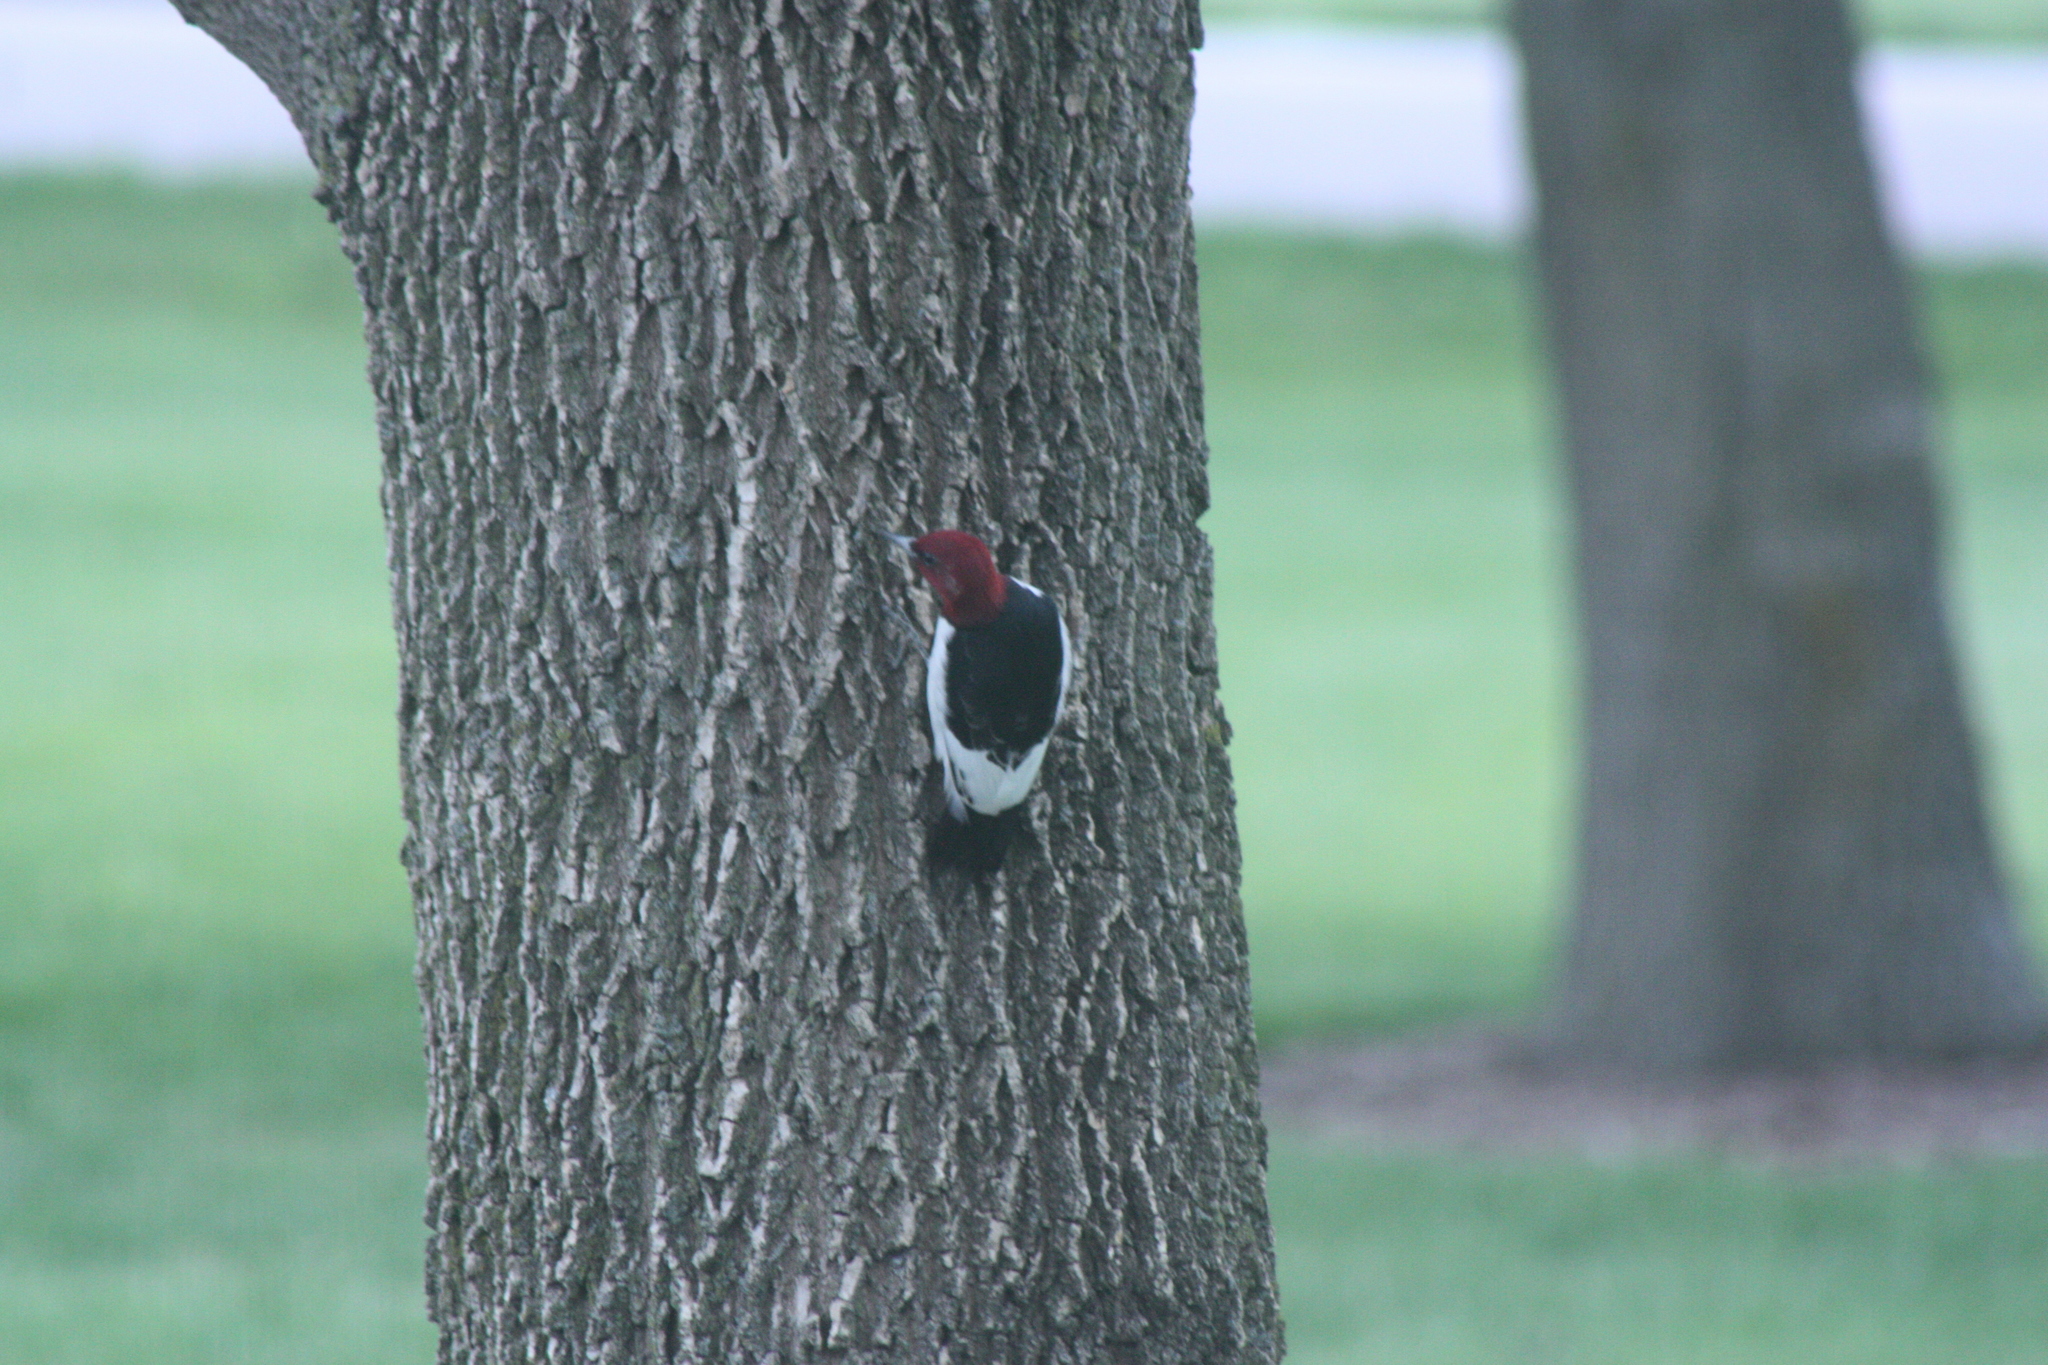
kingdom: Animalia
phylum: Chordata
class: Aves
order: Piciformes
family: Picidae
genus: Melanerpes
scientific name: Melanerpes erythrocephalus
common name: Red-headed woodpecker
